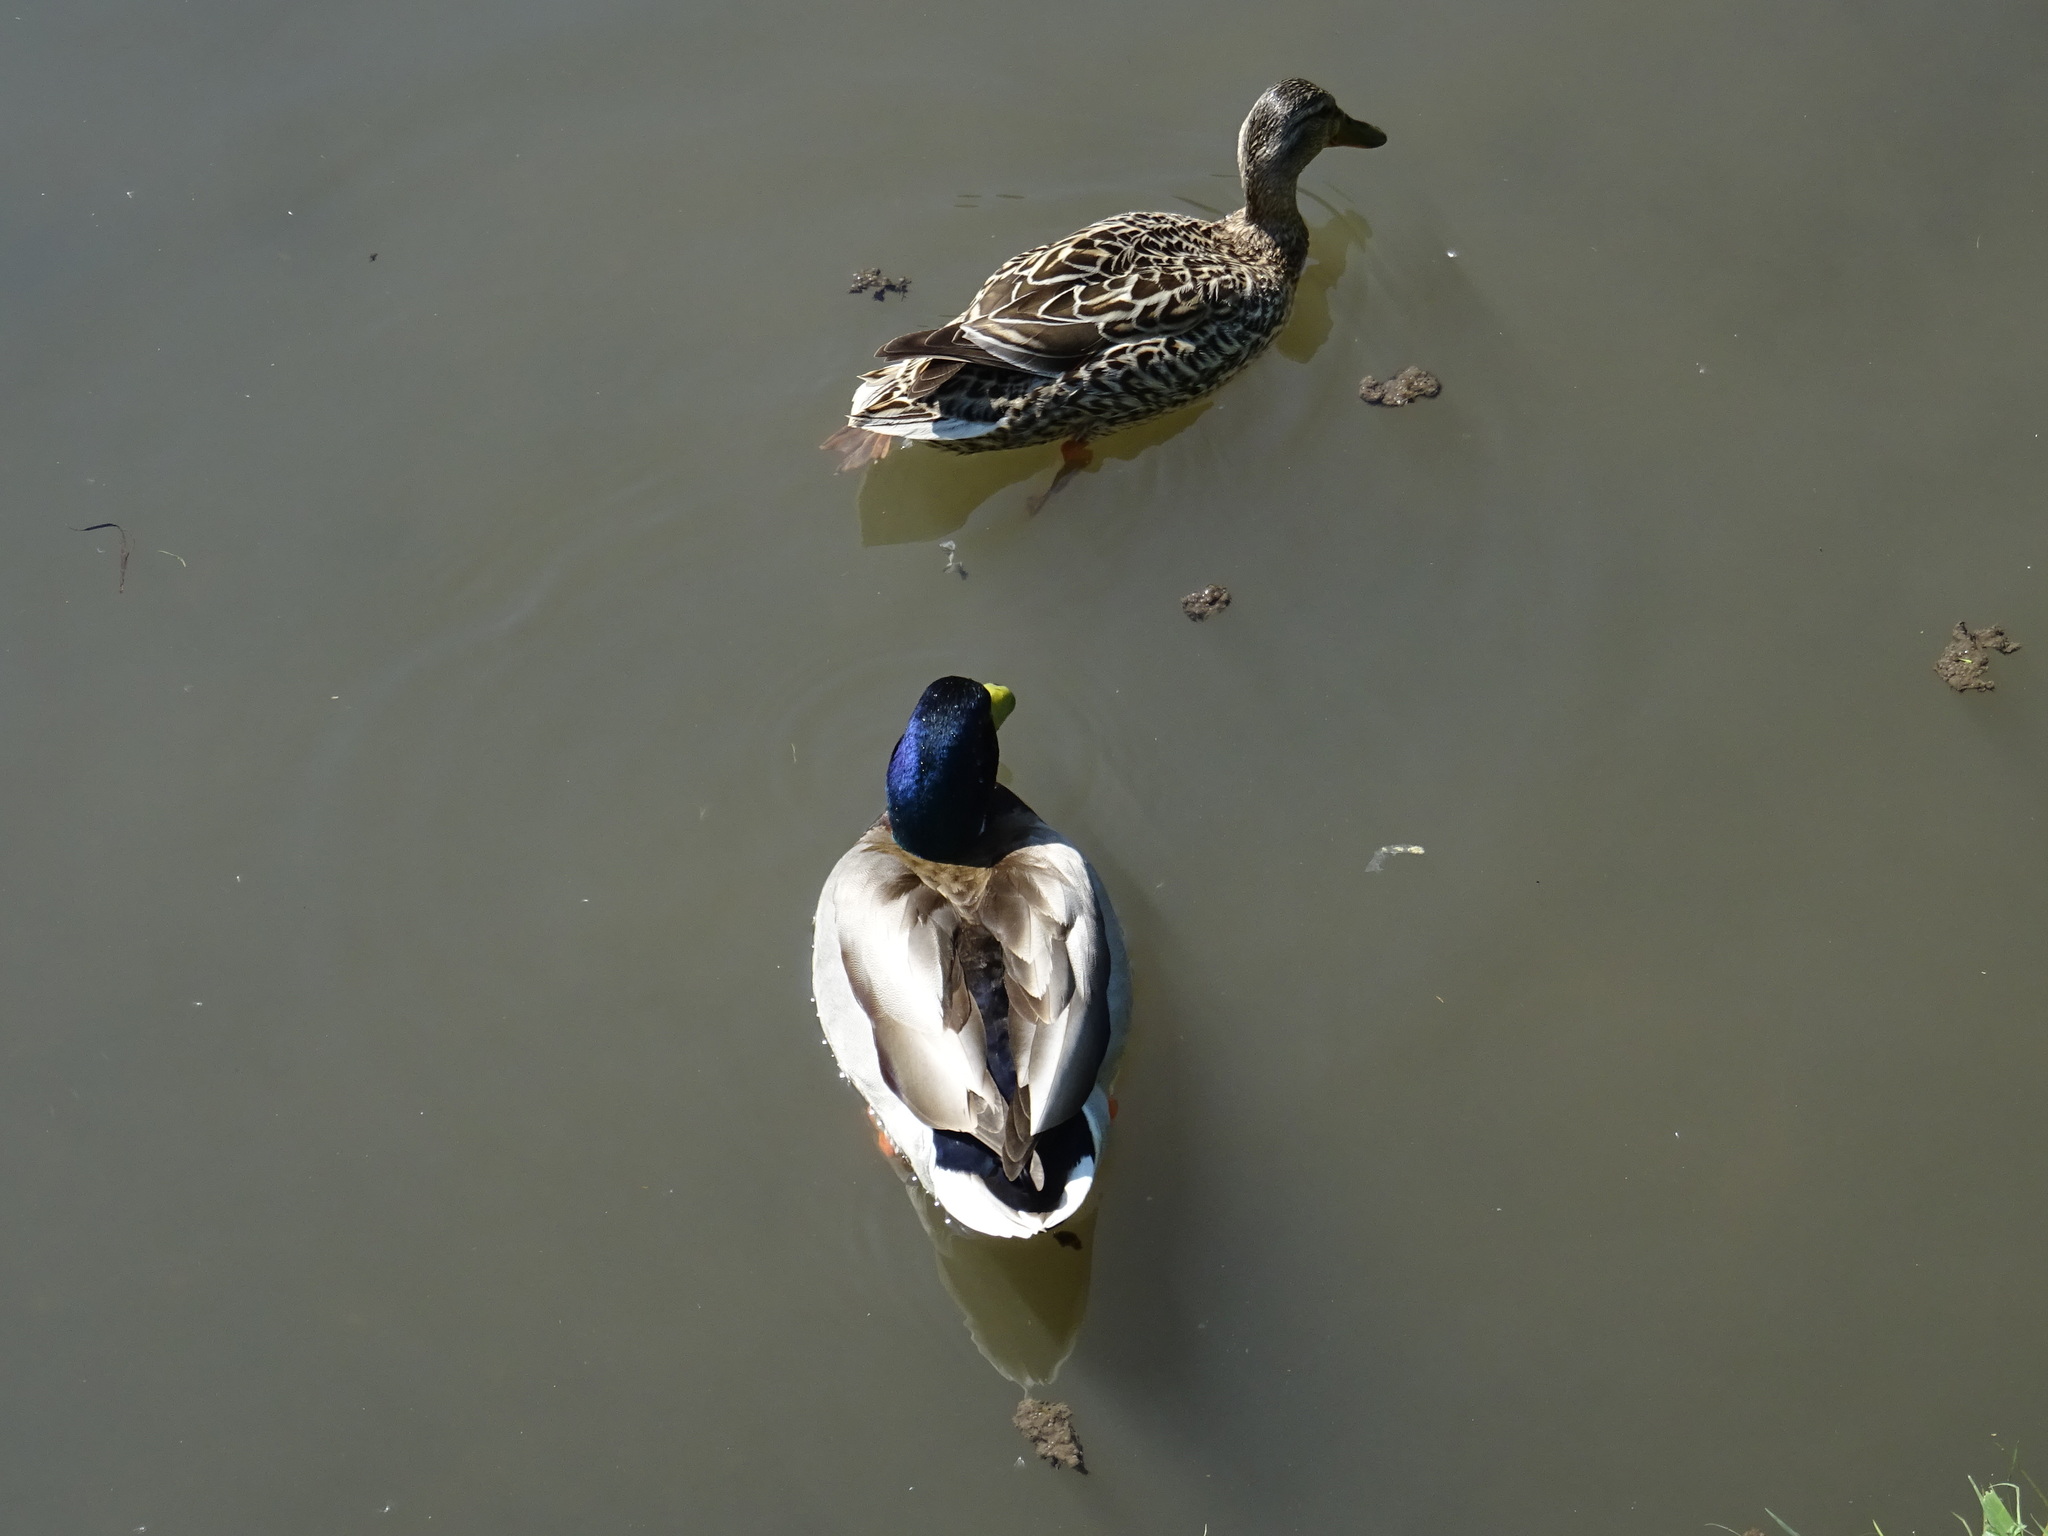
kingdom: Animalia
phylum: Chordata
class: Aves
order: Anseriformes
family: Anatidae
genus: Anas
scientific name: Anas platyrhynchos
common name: Mallard
